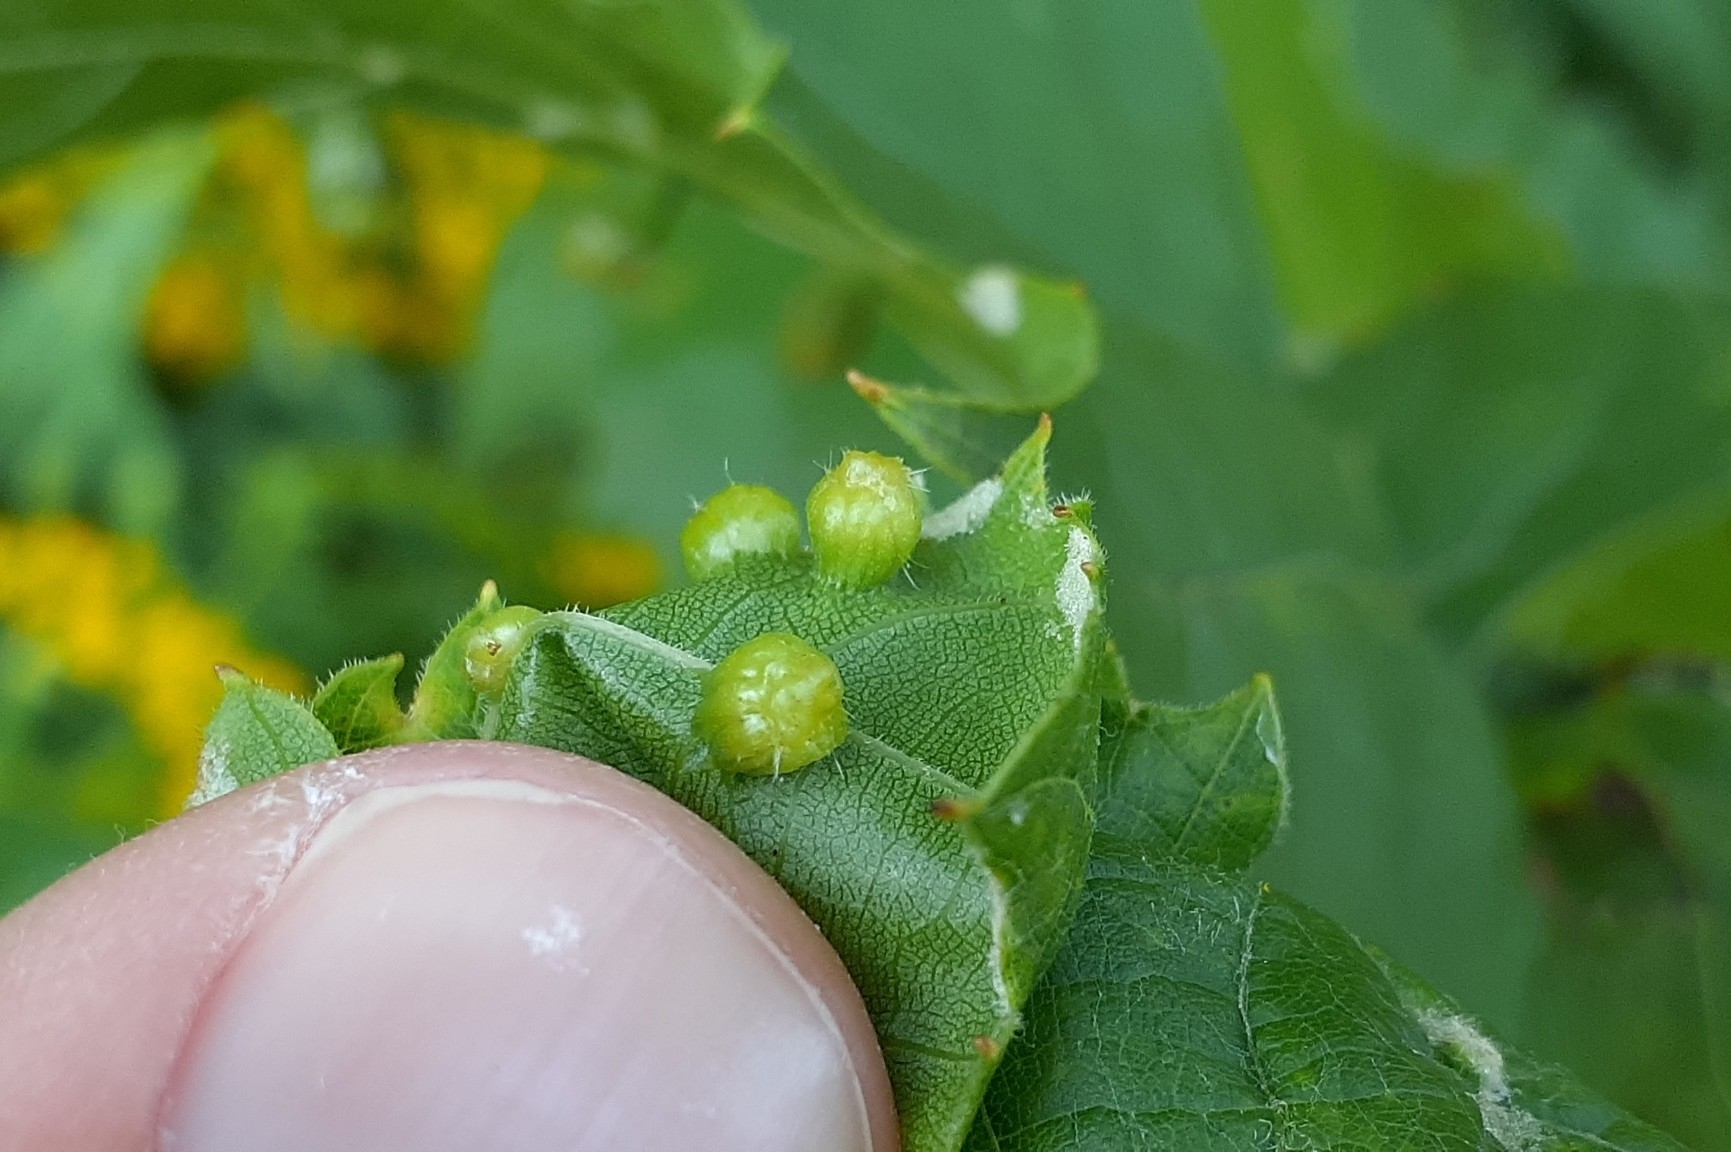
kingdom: Animalia
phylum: Arthropoda
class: Insecta
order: Hemiptera
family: Phylloxeridae
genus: Daktulosphaira
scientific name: Daktulosphaira vitifoliae
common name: Grape phylloxera
